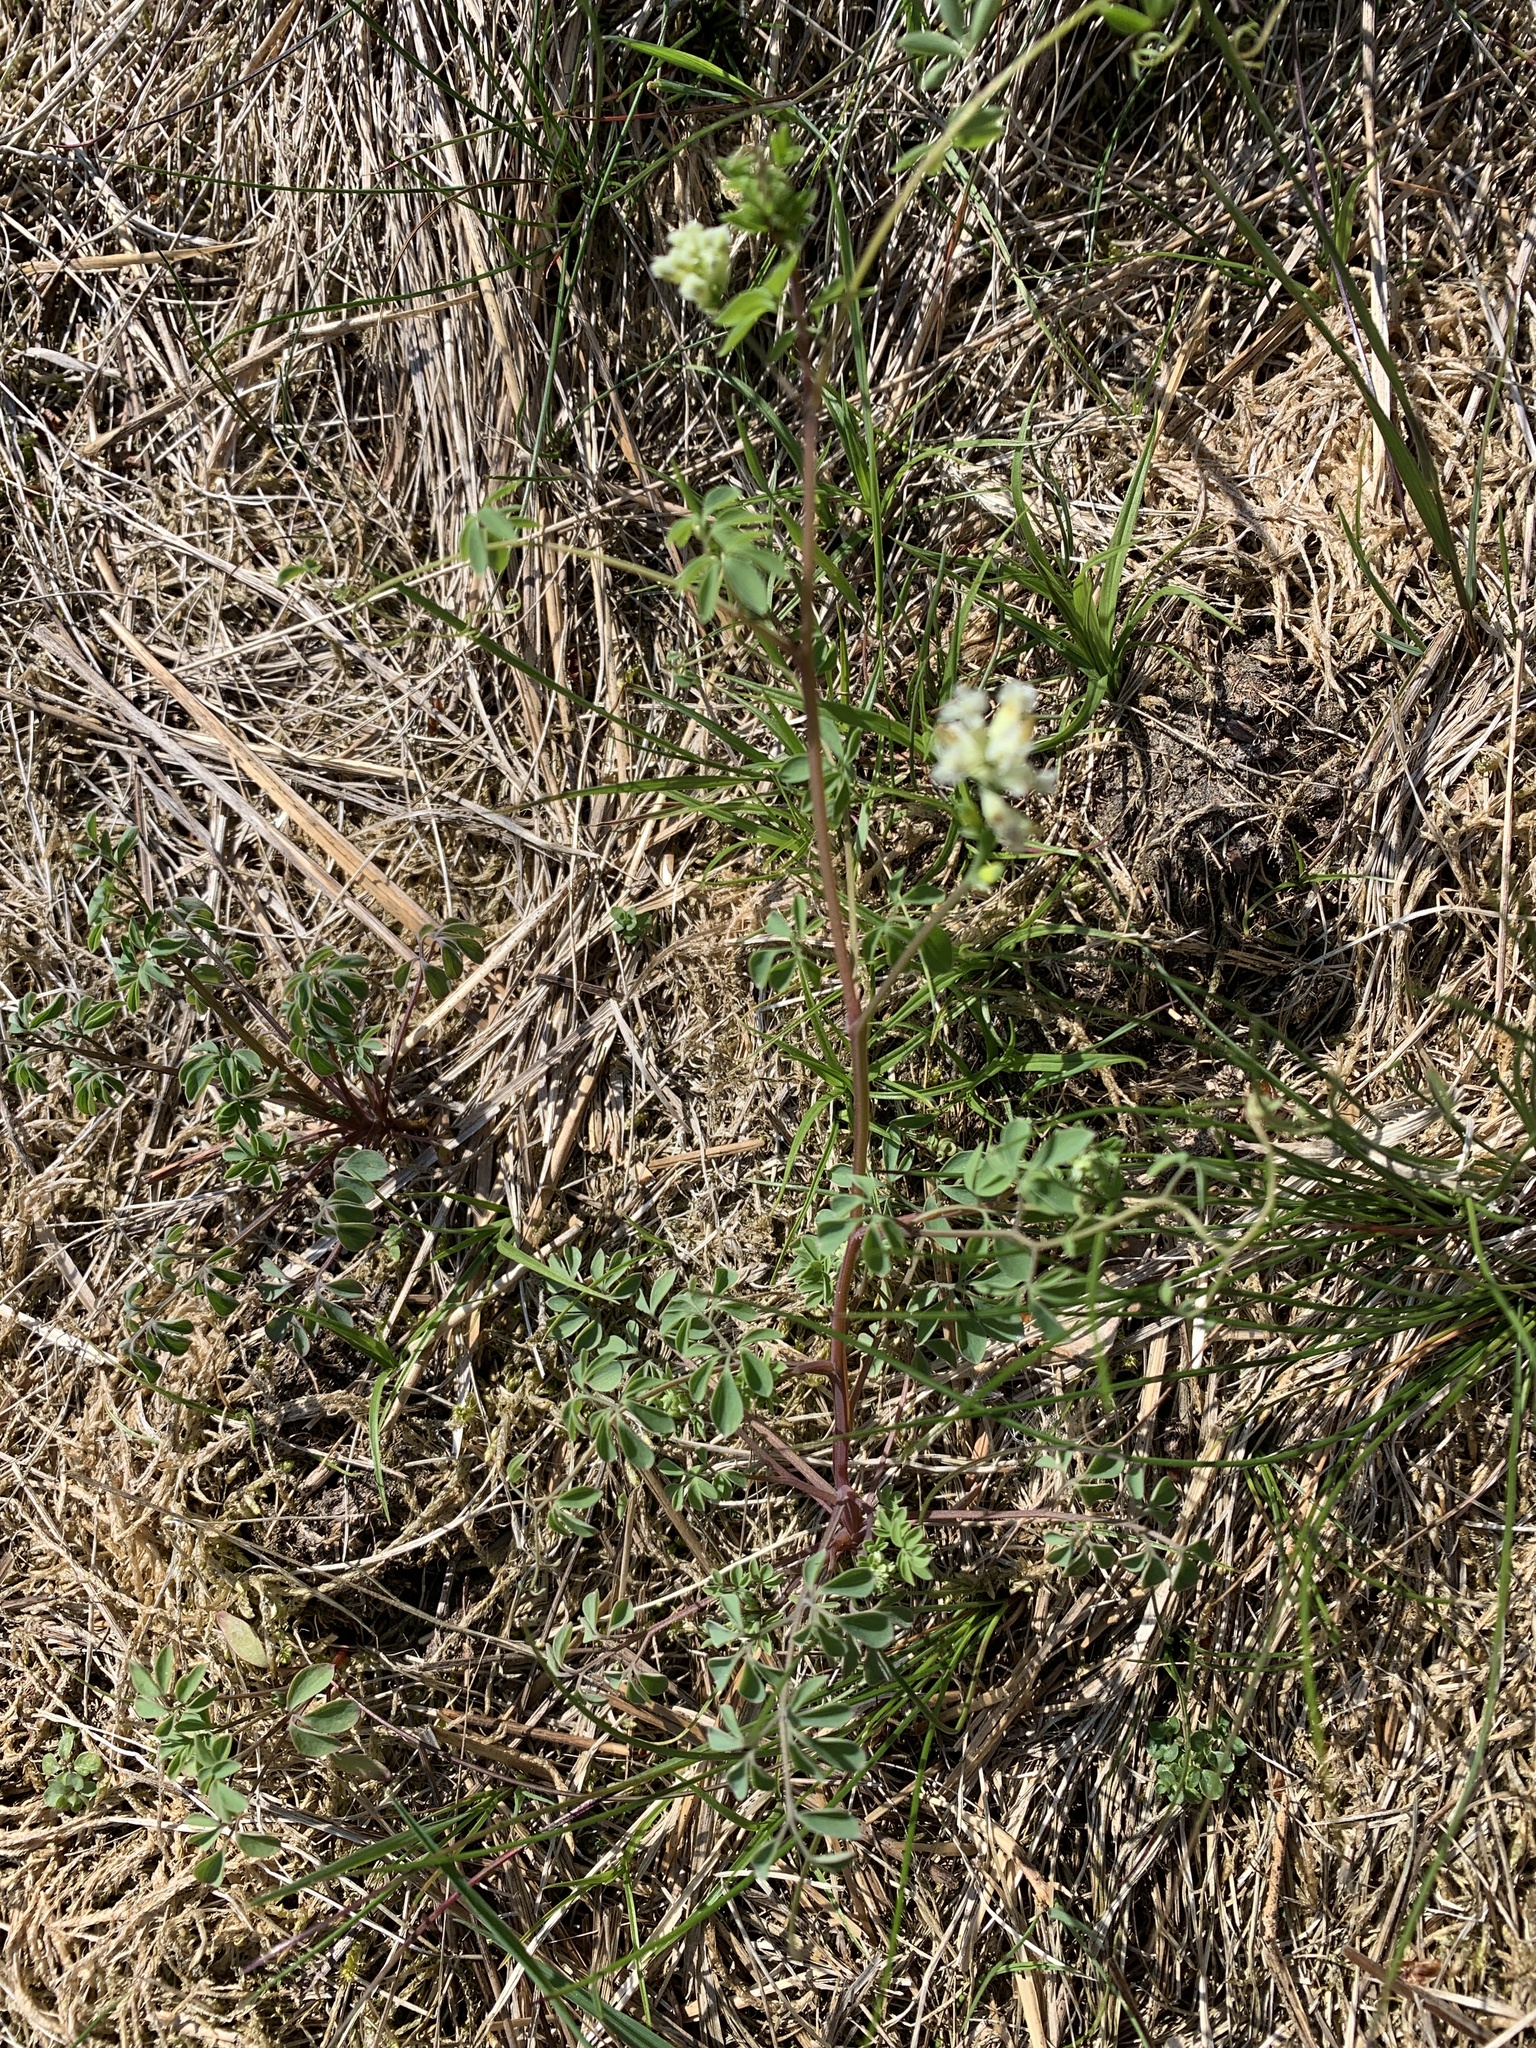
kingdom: Plantae
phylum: Tracheophyta
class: Magnoliopsida
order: Ranunculales
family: Papaveraceae
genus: Ceratocapnos
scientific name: Ceratocapnos claviculata
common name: Climbing corydalis
